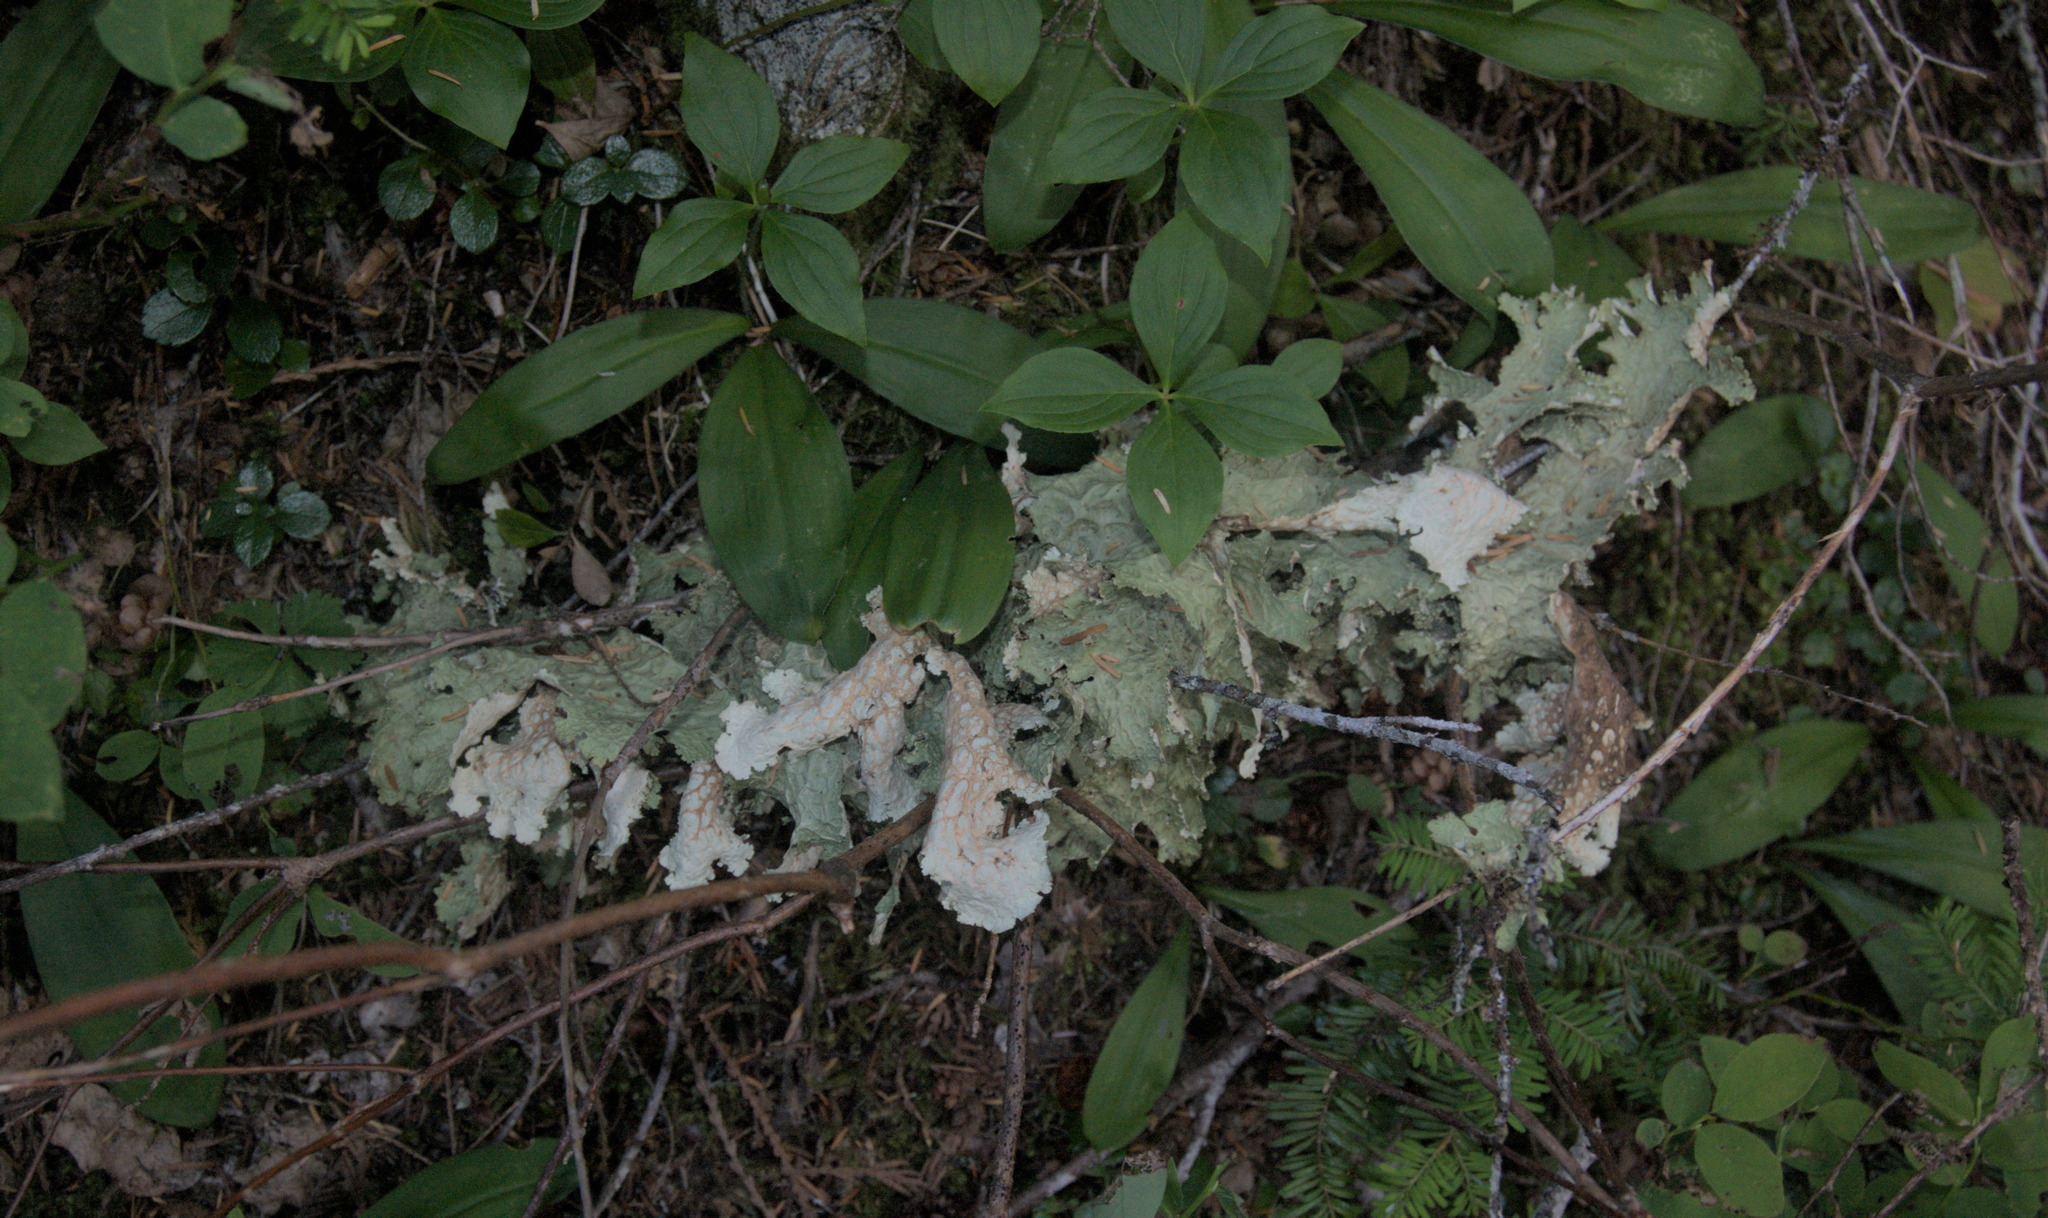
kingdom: Fungi
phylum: Ascomycota
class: Lecanoromycetes
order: Peltigerales
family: Lobariaceae
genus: Lobaria
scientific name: Lobaria oregana
